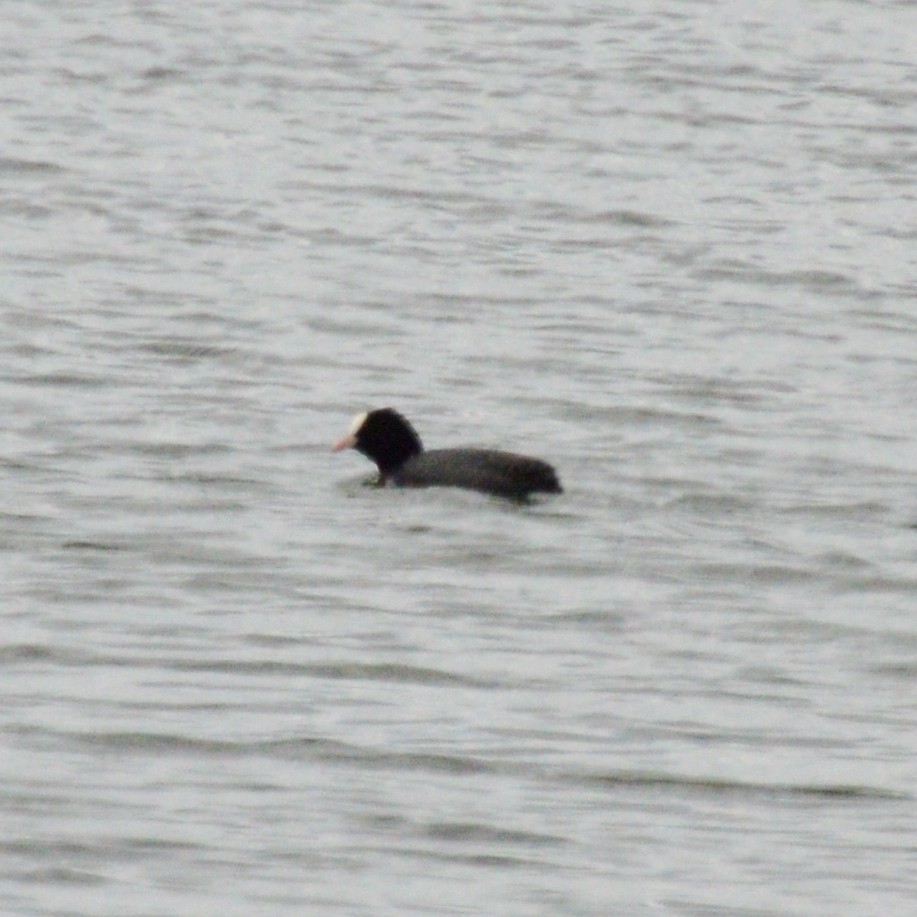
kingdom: Animalia
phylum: Chordata
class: Aves
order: Gruiformes
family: Rallidae
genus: Fulica
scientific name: Fulica atra
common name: Eurasian coot
